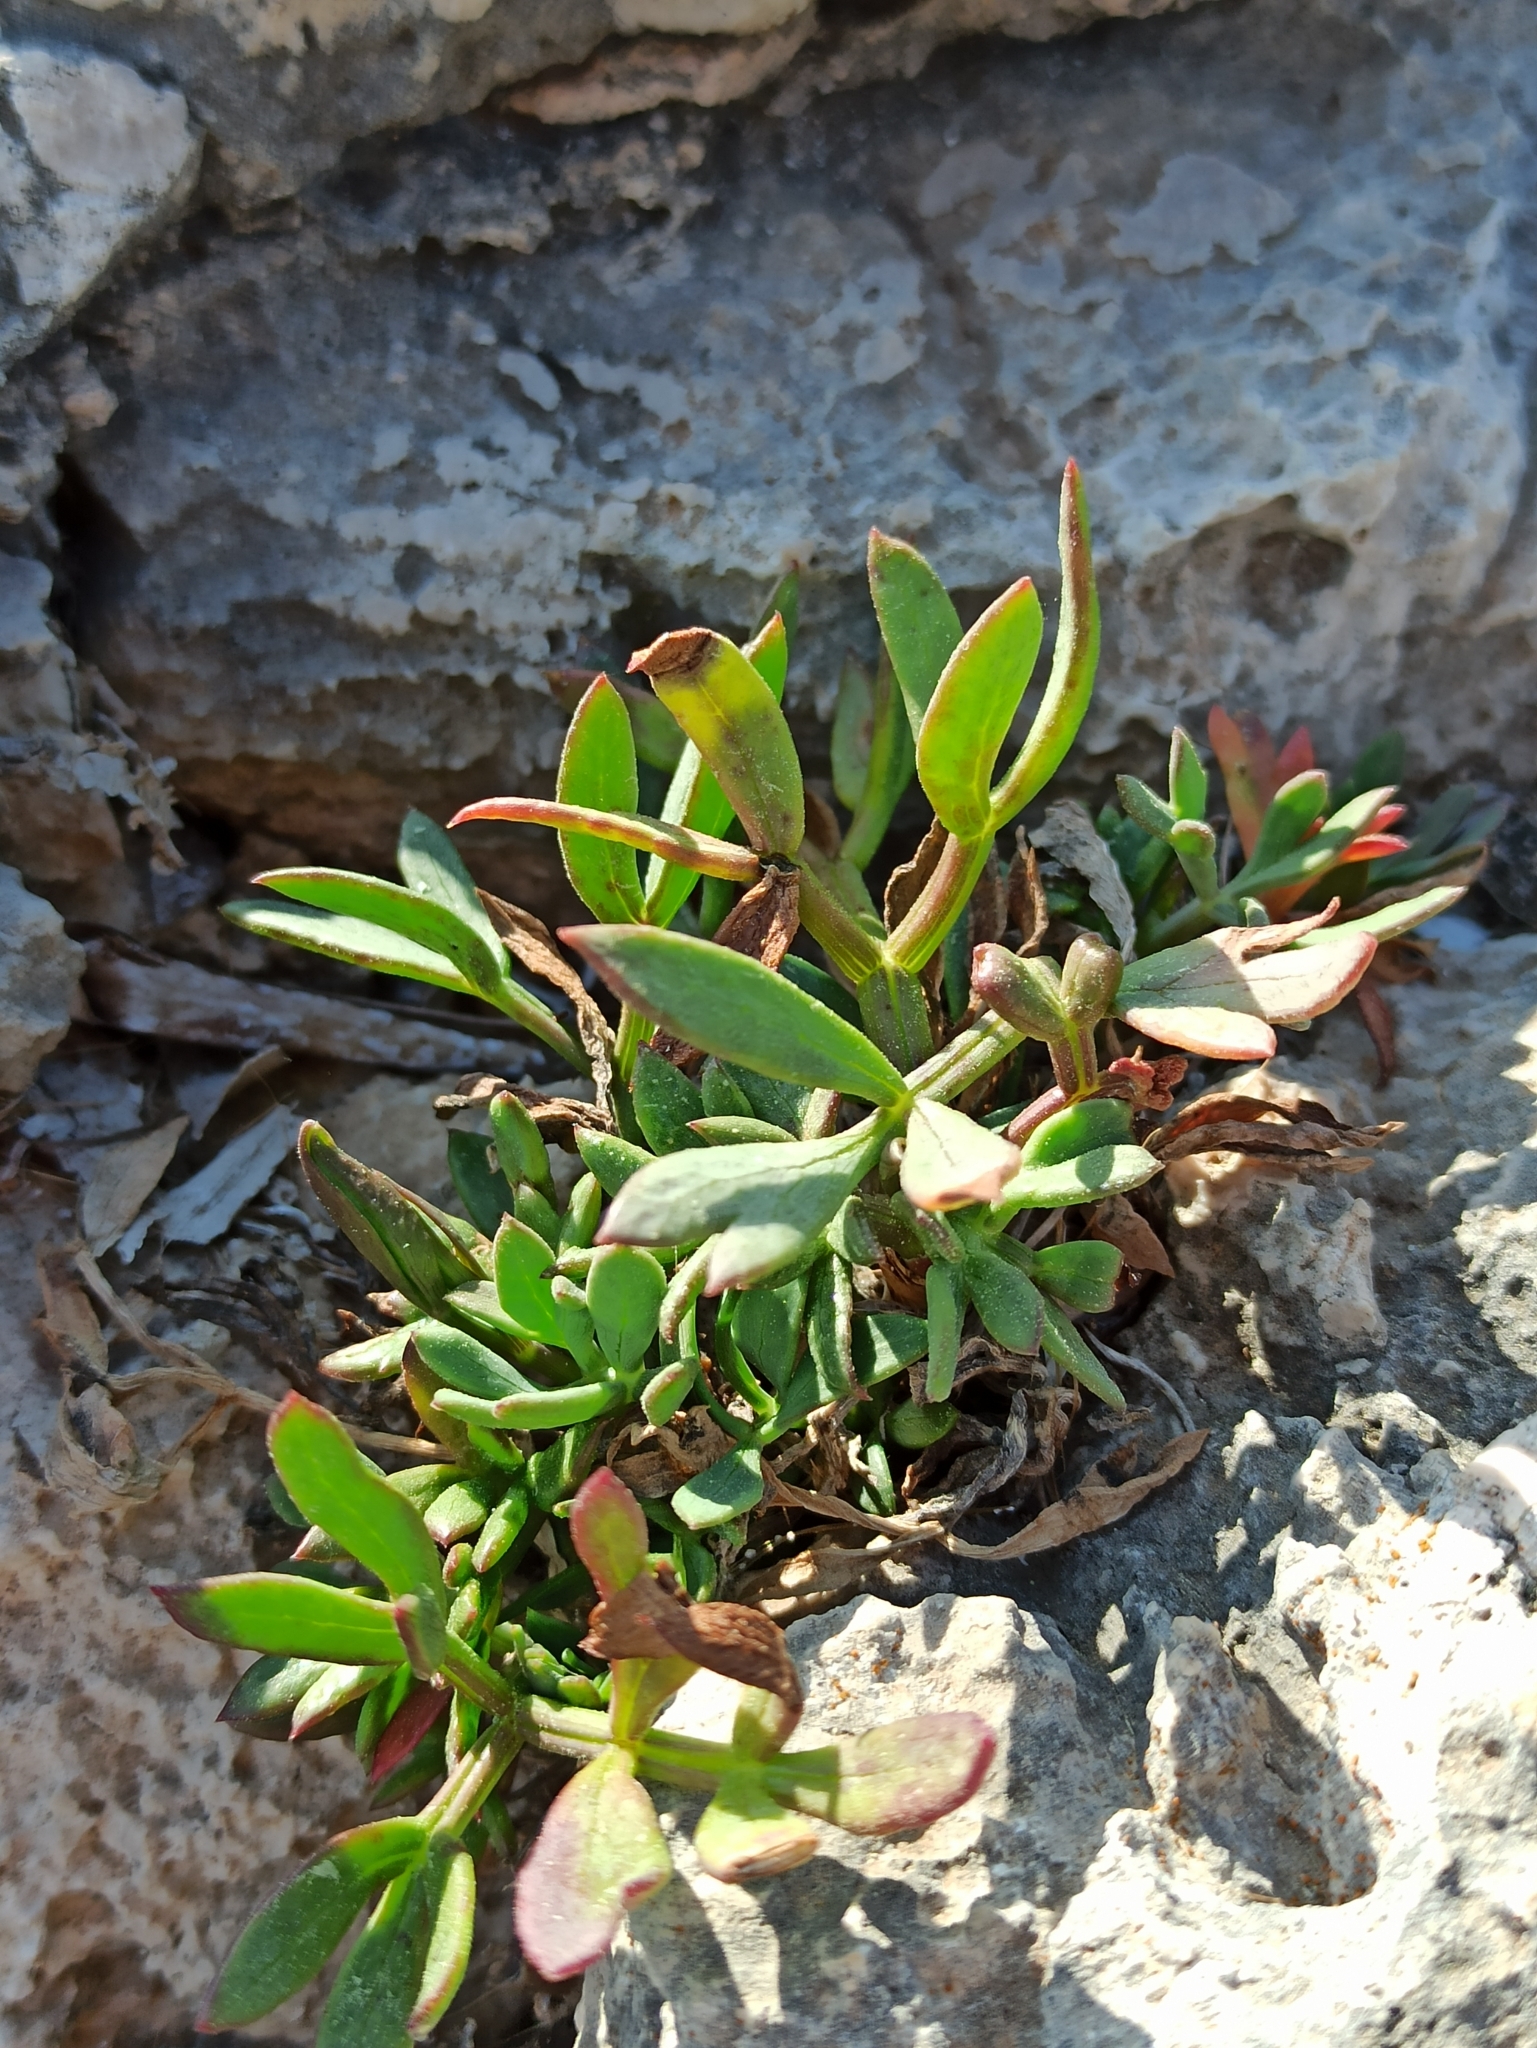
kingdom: Plantae
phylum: Tracheophyta
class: Magnoliopsida
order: Apiales
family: Apiaceae
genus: Crithmum
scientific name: Crithmum maritimum
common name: Rock samphire
